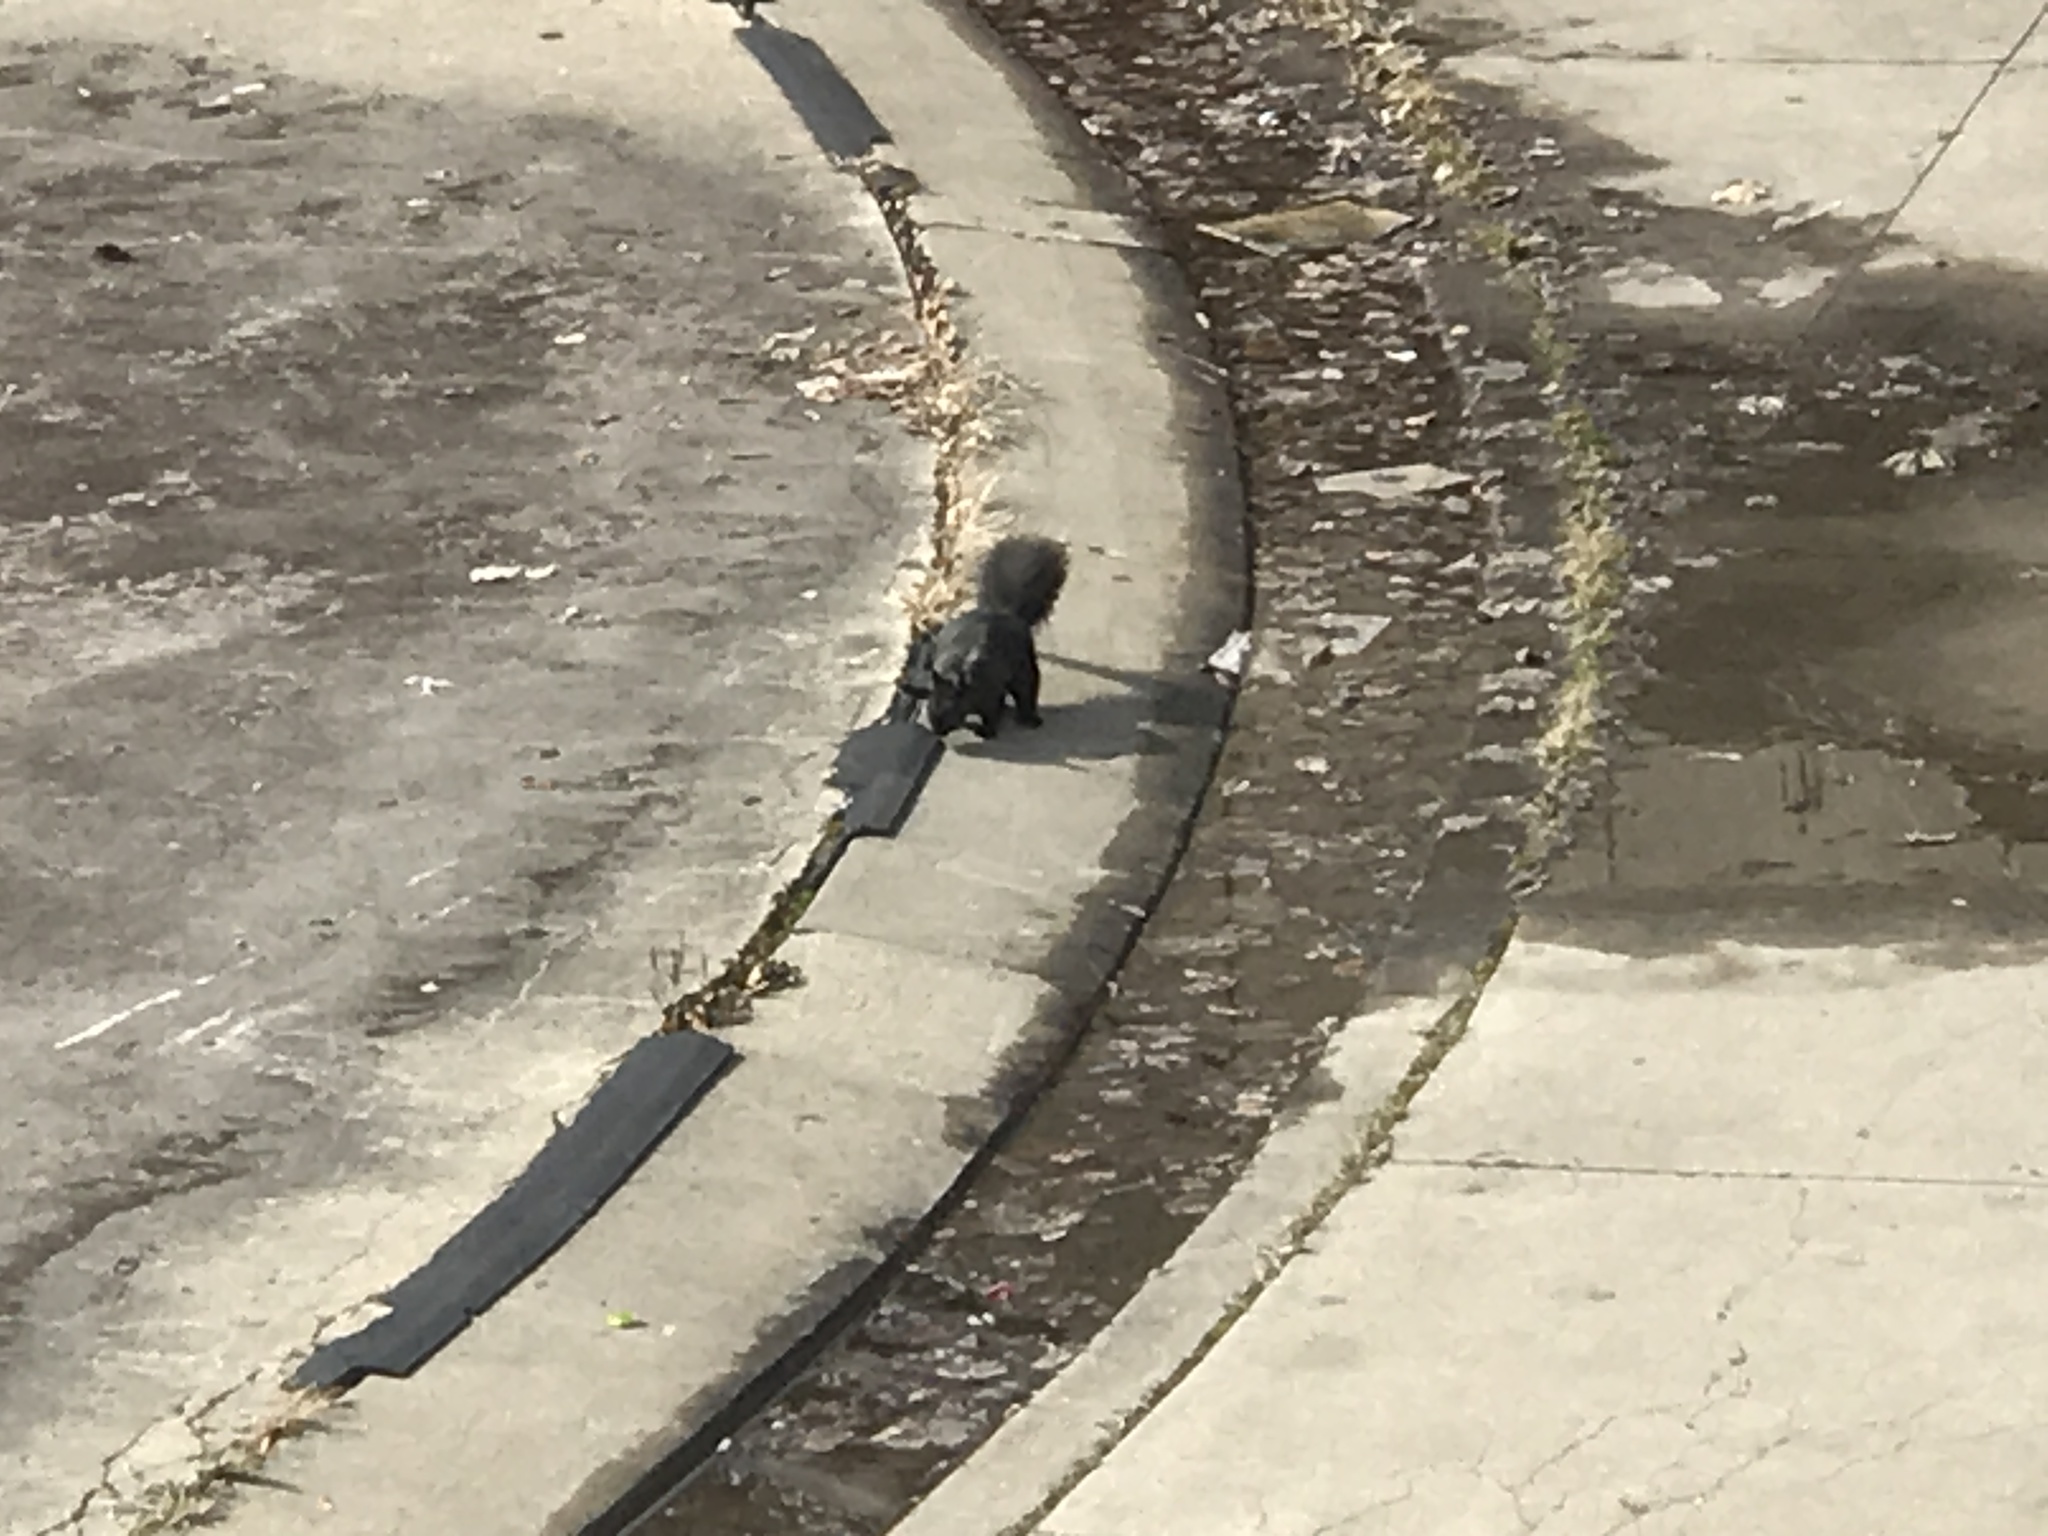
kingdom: Animalia
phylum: Chordata
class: Mammalia
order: Rodentia
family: Sciuridae
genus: Sciurus
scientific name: Sciurus carolinensis
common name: Eastern gray squirrel
